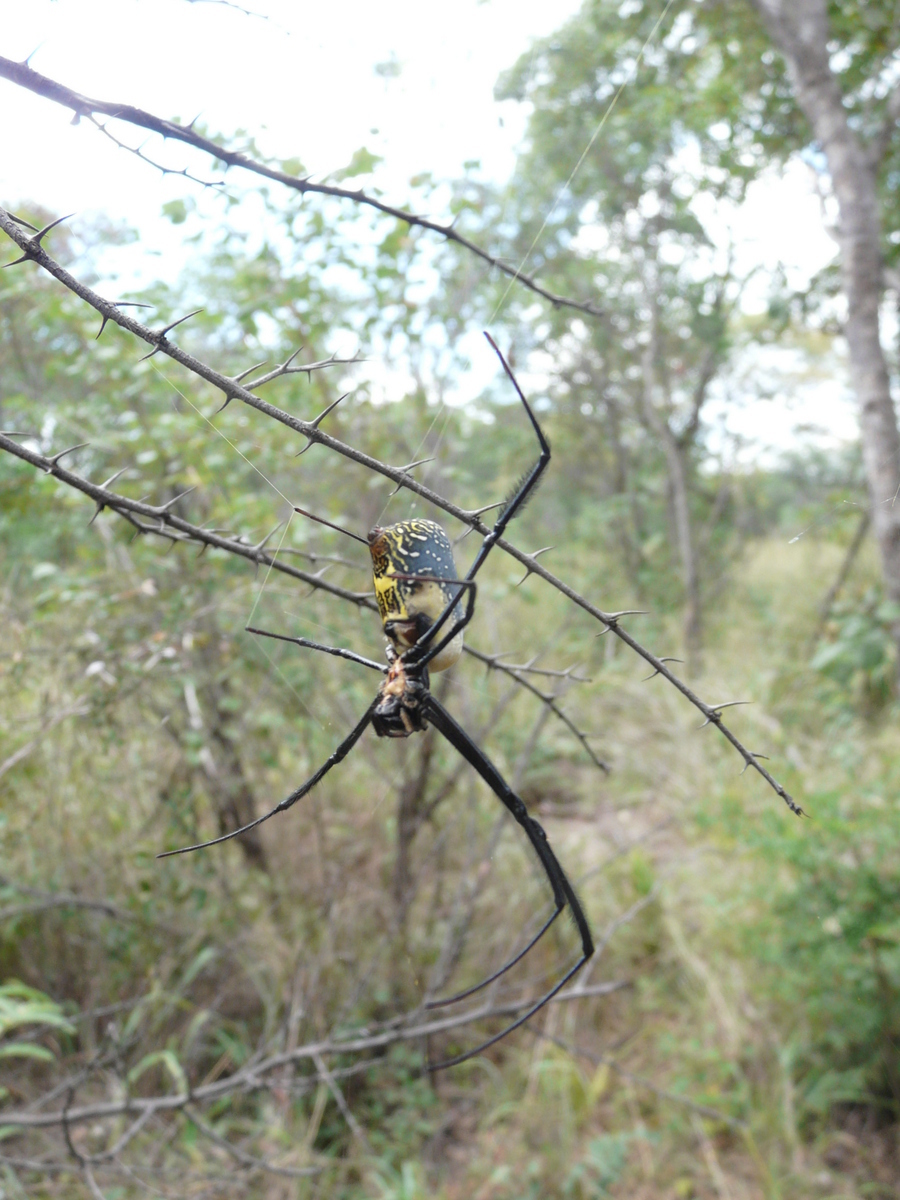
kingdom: Animalia
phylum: Arthropoda
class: Arachnida
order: Araneae
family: Araneidae
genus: Trichonephila
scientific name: Trichonephila fenestrata
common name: Hairy golden orb weaver
